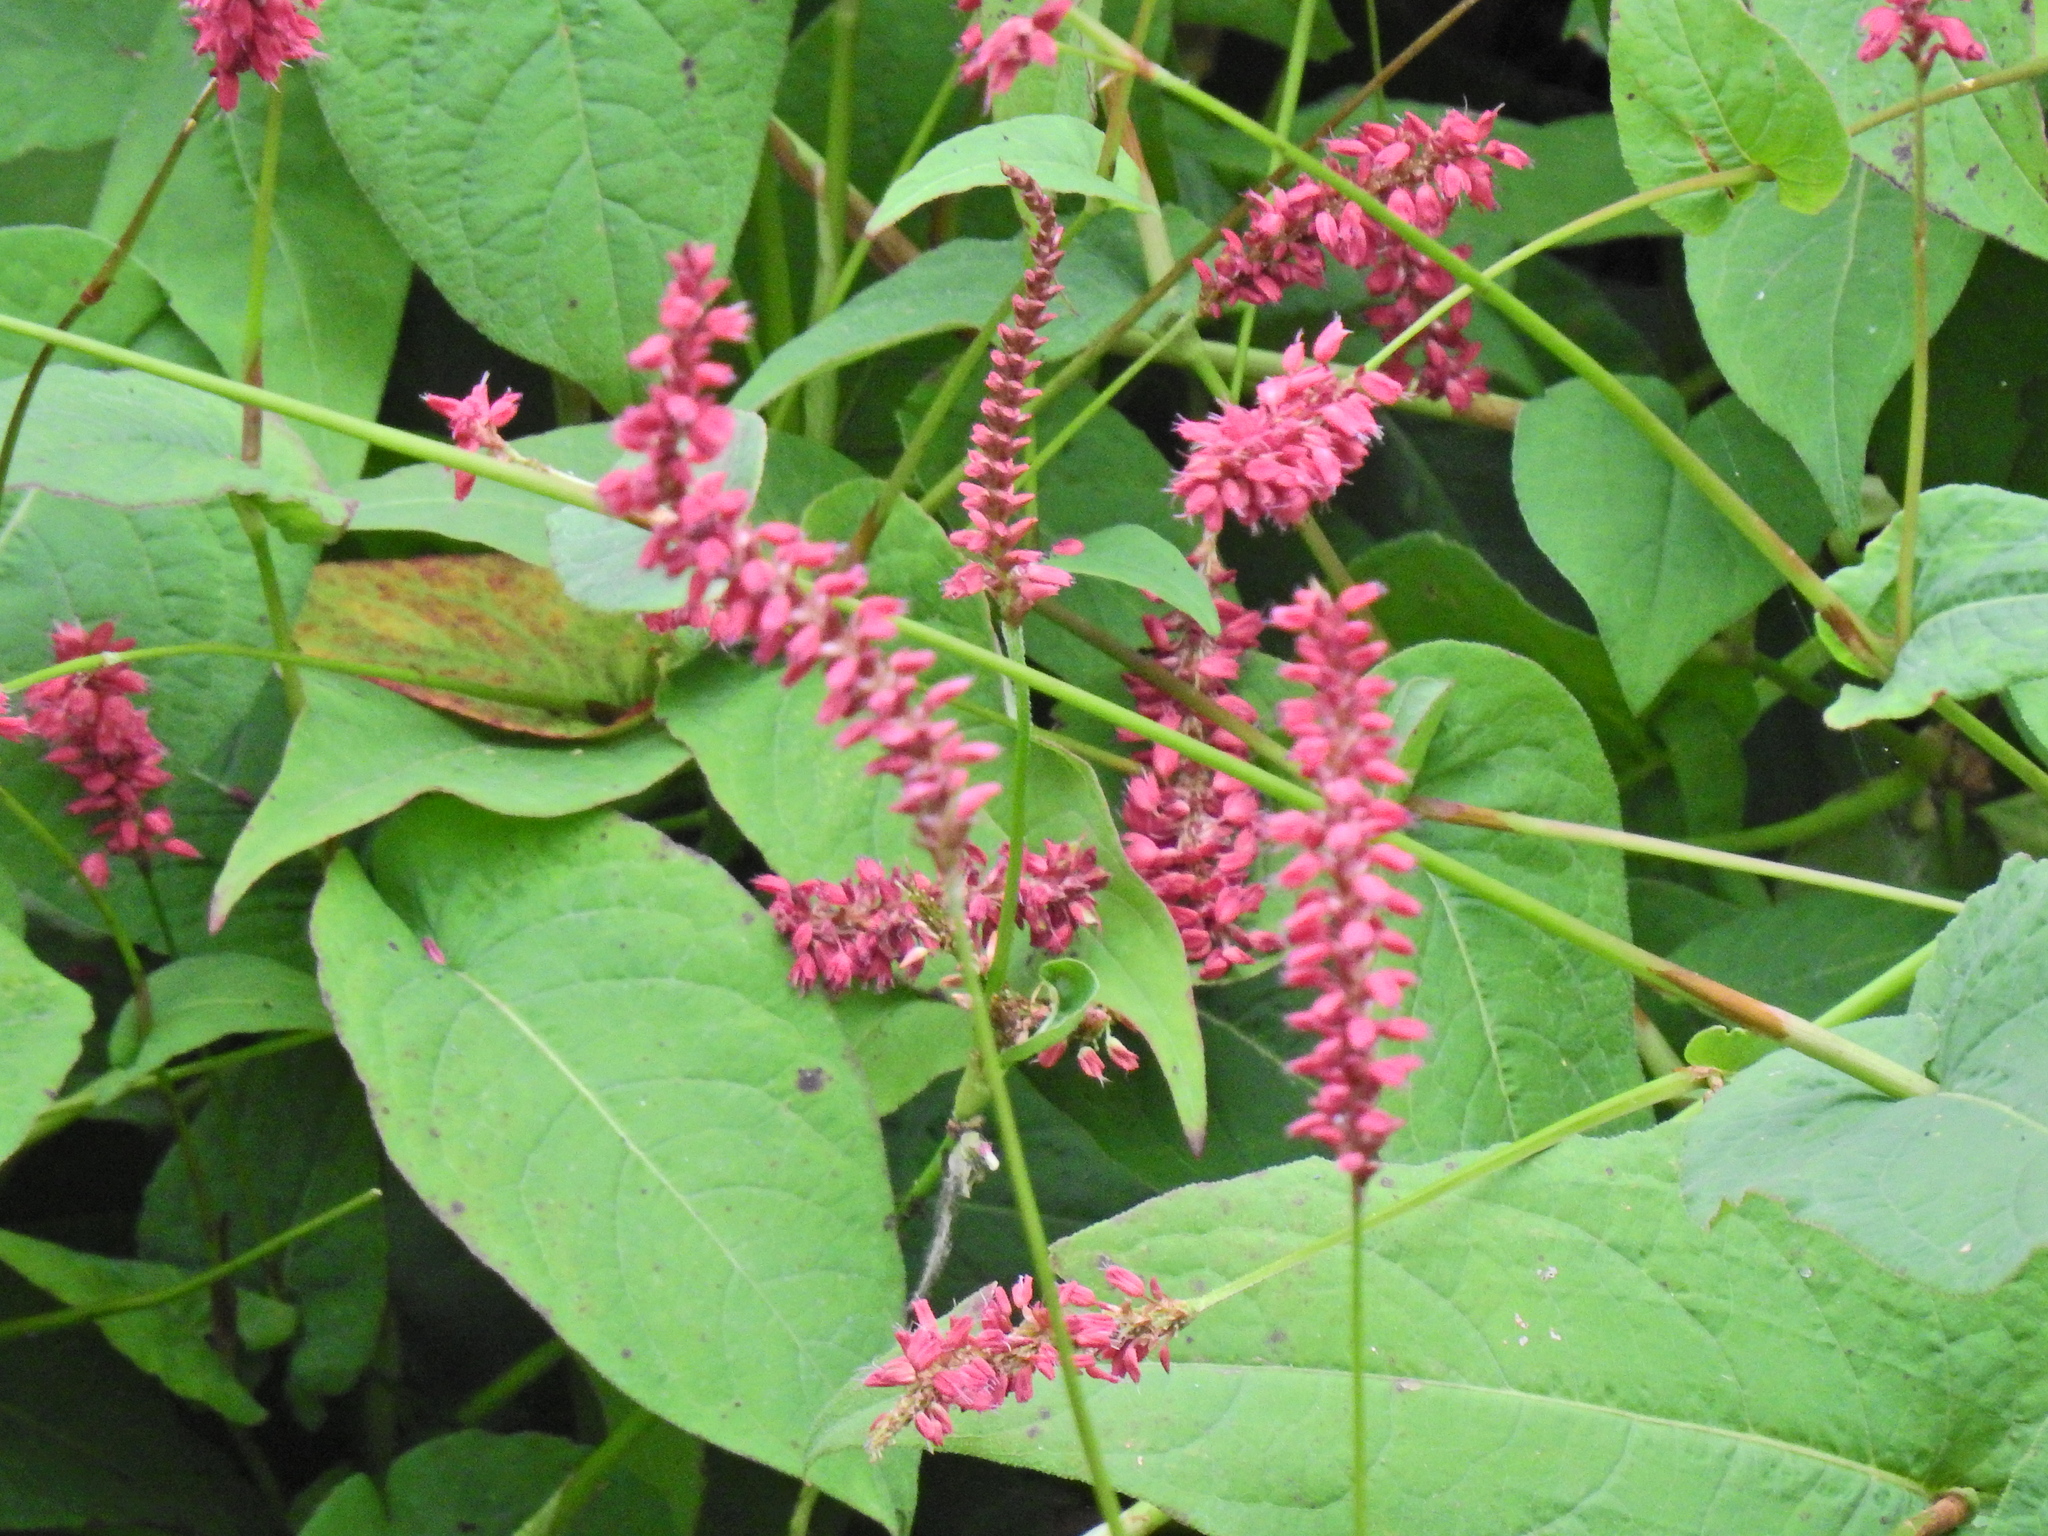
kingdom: Plantae
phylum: Tracheophyta
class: Magnoliopsida
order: Caryophyllales
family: Polygonaceae
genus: Bistorta
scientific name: Bistorta amplexicaulis
